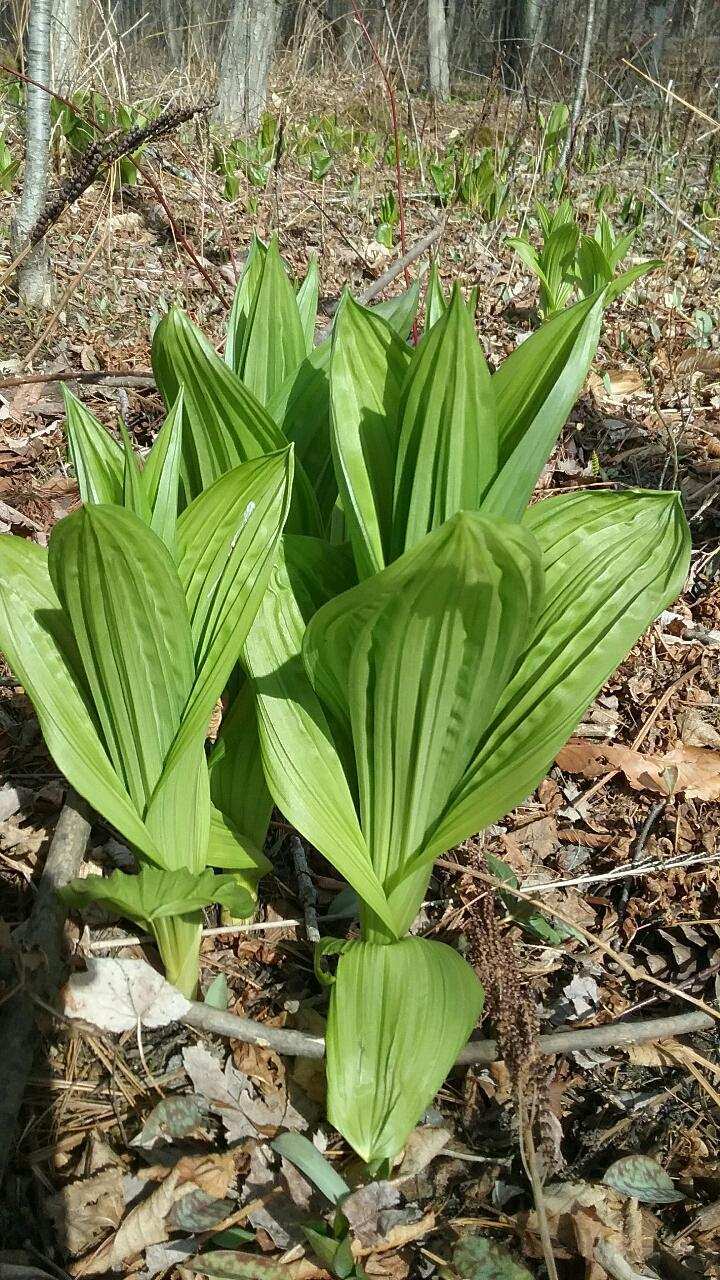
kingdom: Plantae
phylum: Tracheophyta
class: Liliopsida
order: Liliales
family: Melanthiaceae
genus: Veratrum
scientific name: Veratrum viride
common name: American false hellebore
